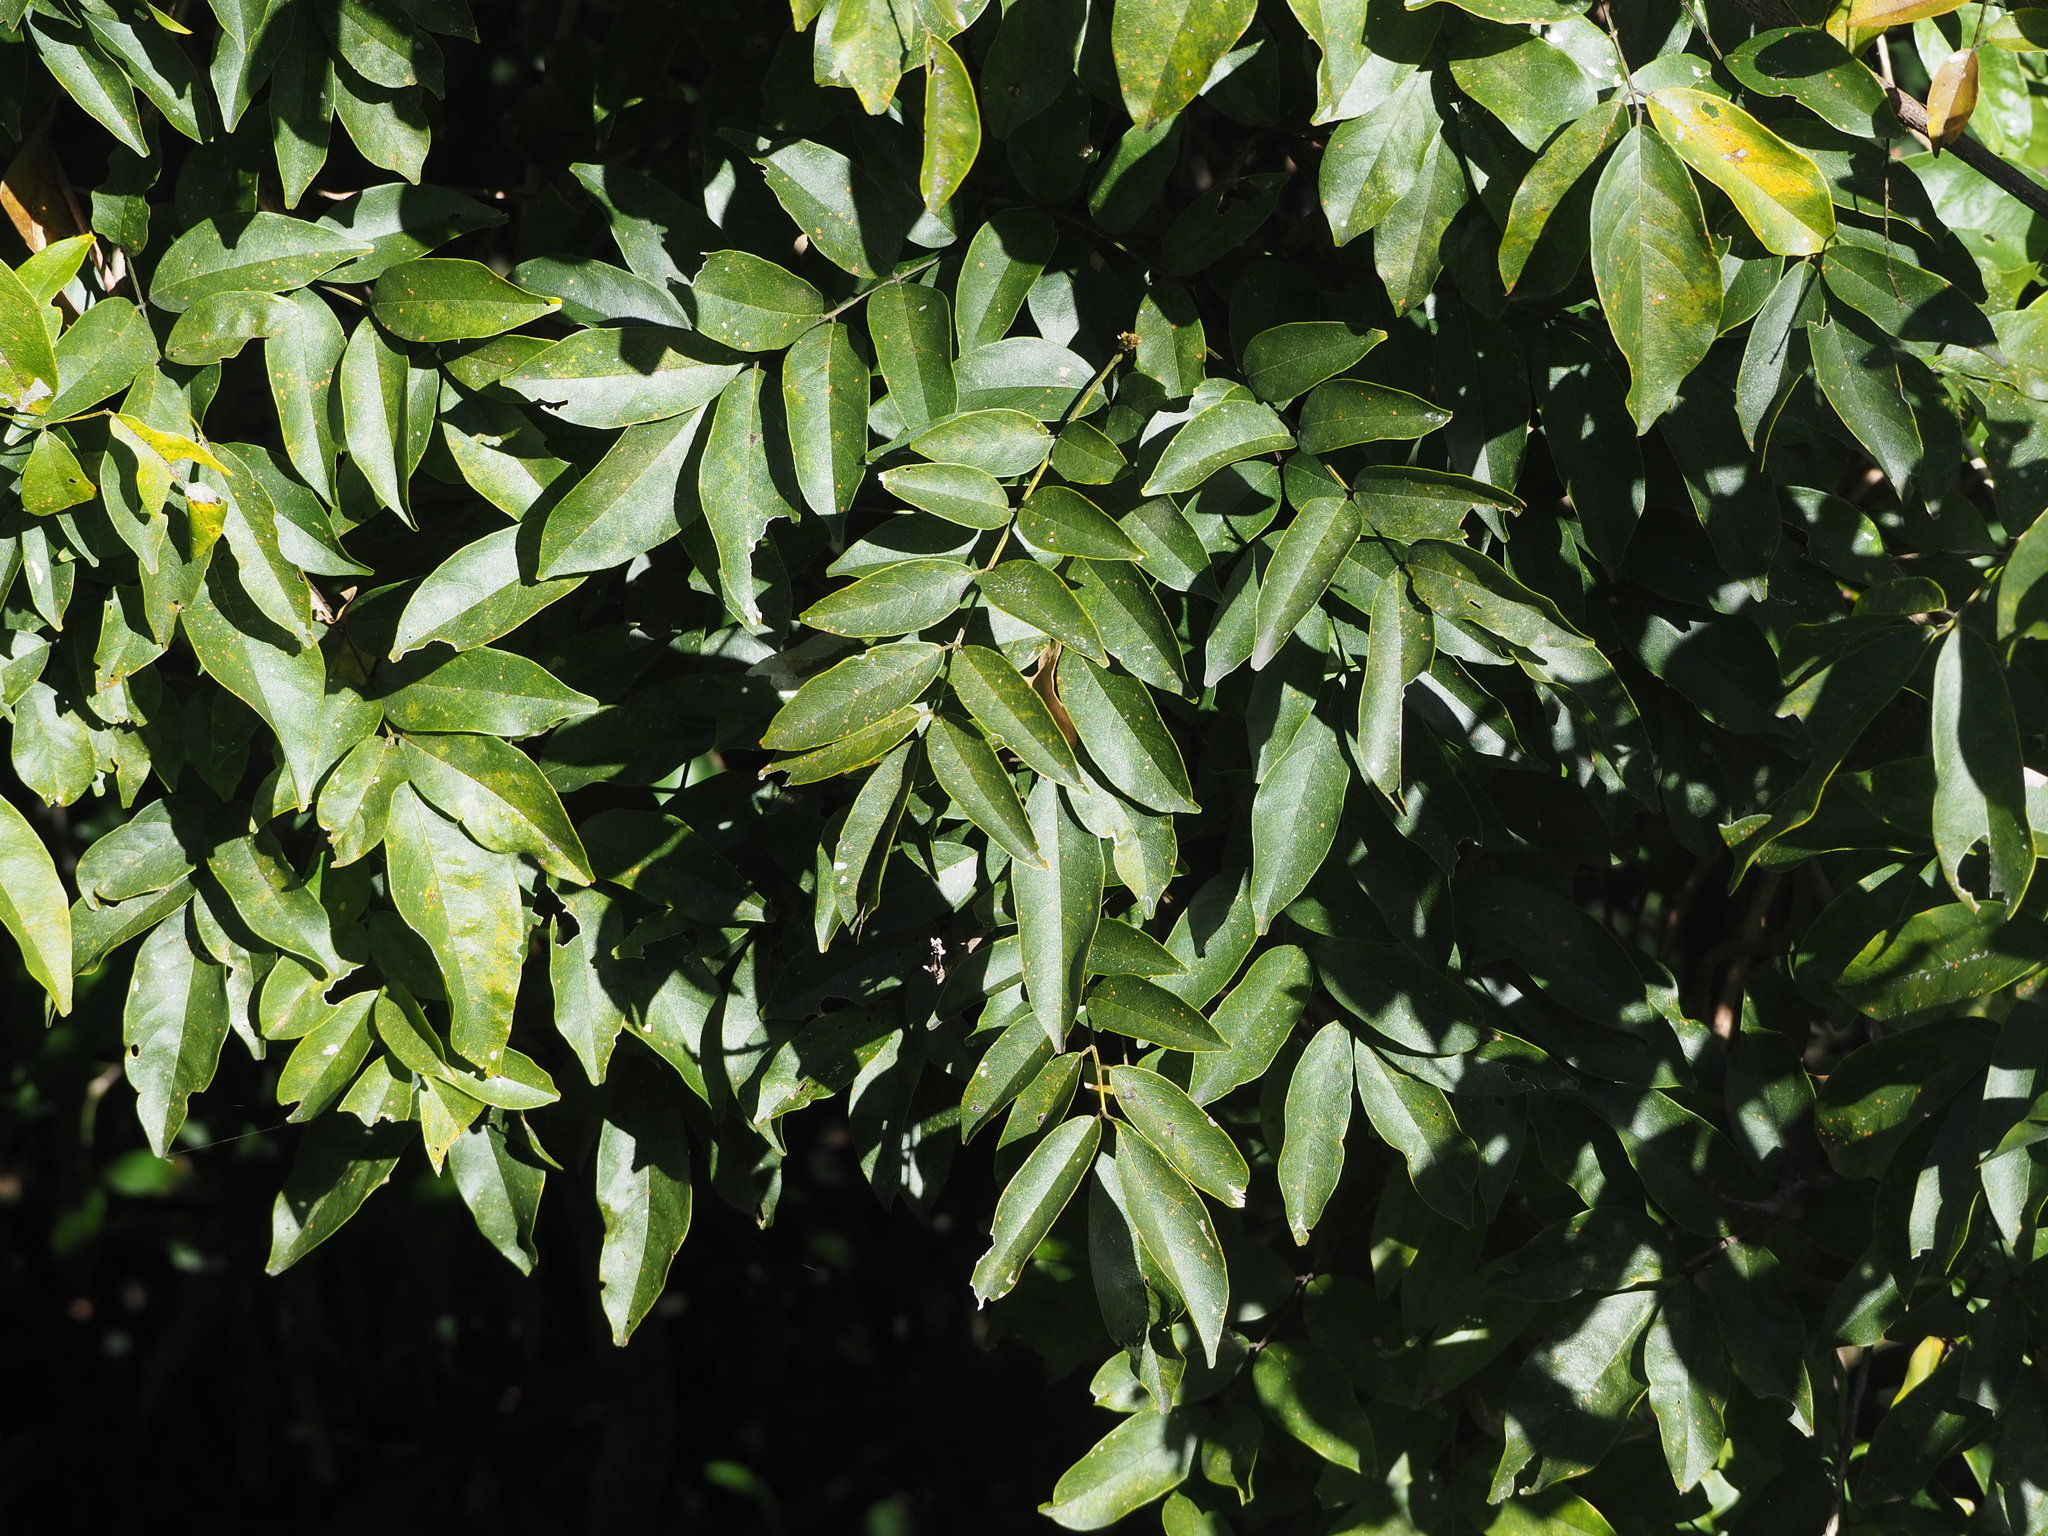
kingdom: Plantae
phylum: Tracheophyta
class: Magnoliopsida
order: Fabales
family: Fabaceae
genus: Wisteriopsis
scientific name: Wisteriopsis reticulata
